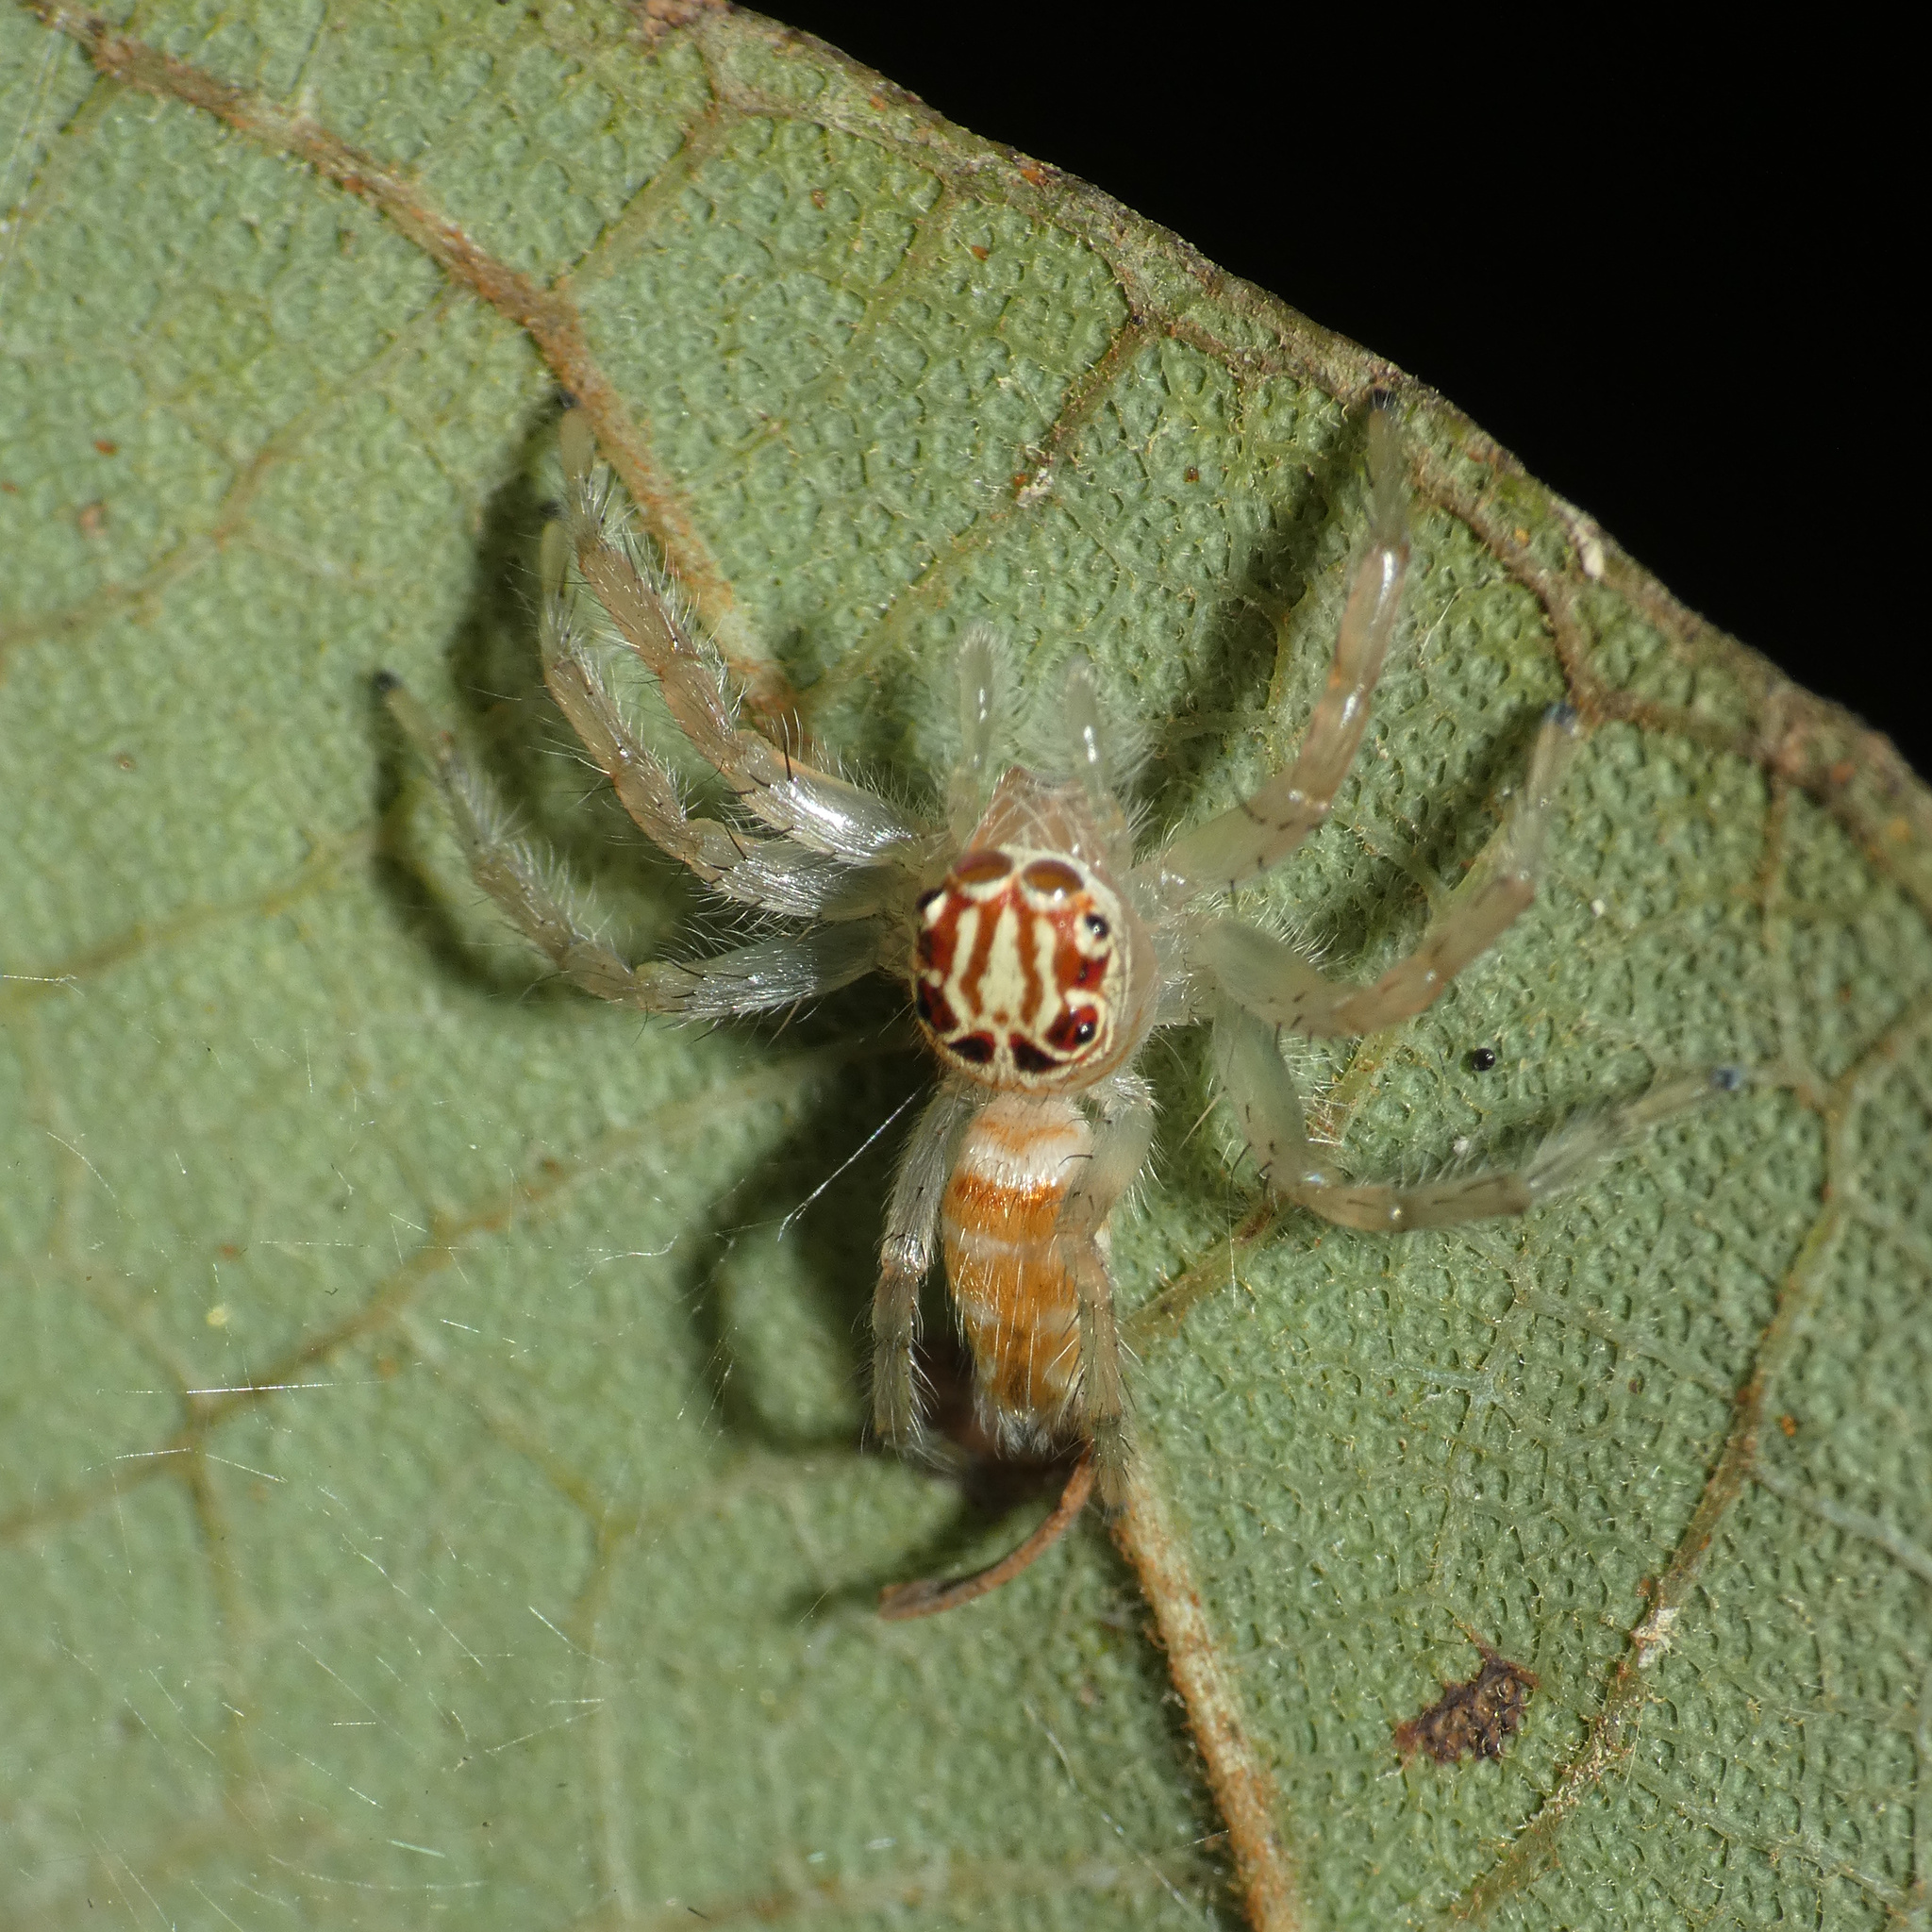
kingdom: Animalia
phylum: Arthropoda
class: Arachnida
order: Araneae
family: Salticidae
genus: Brancus
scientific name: Brancus mustelus
